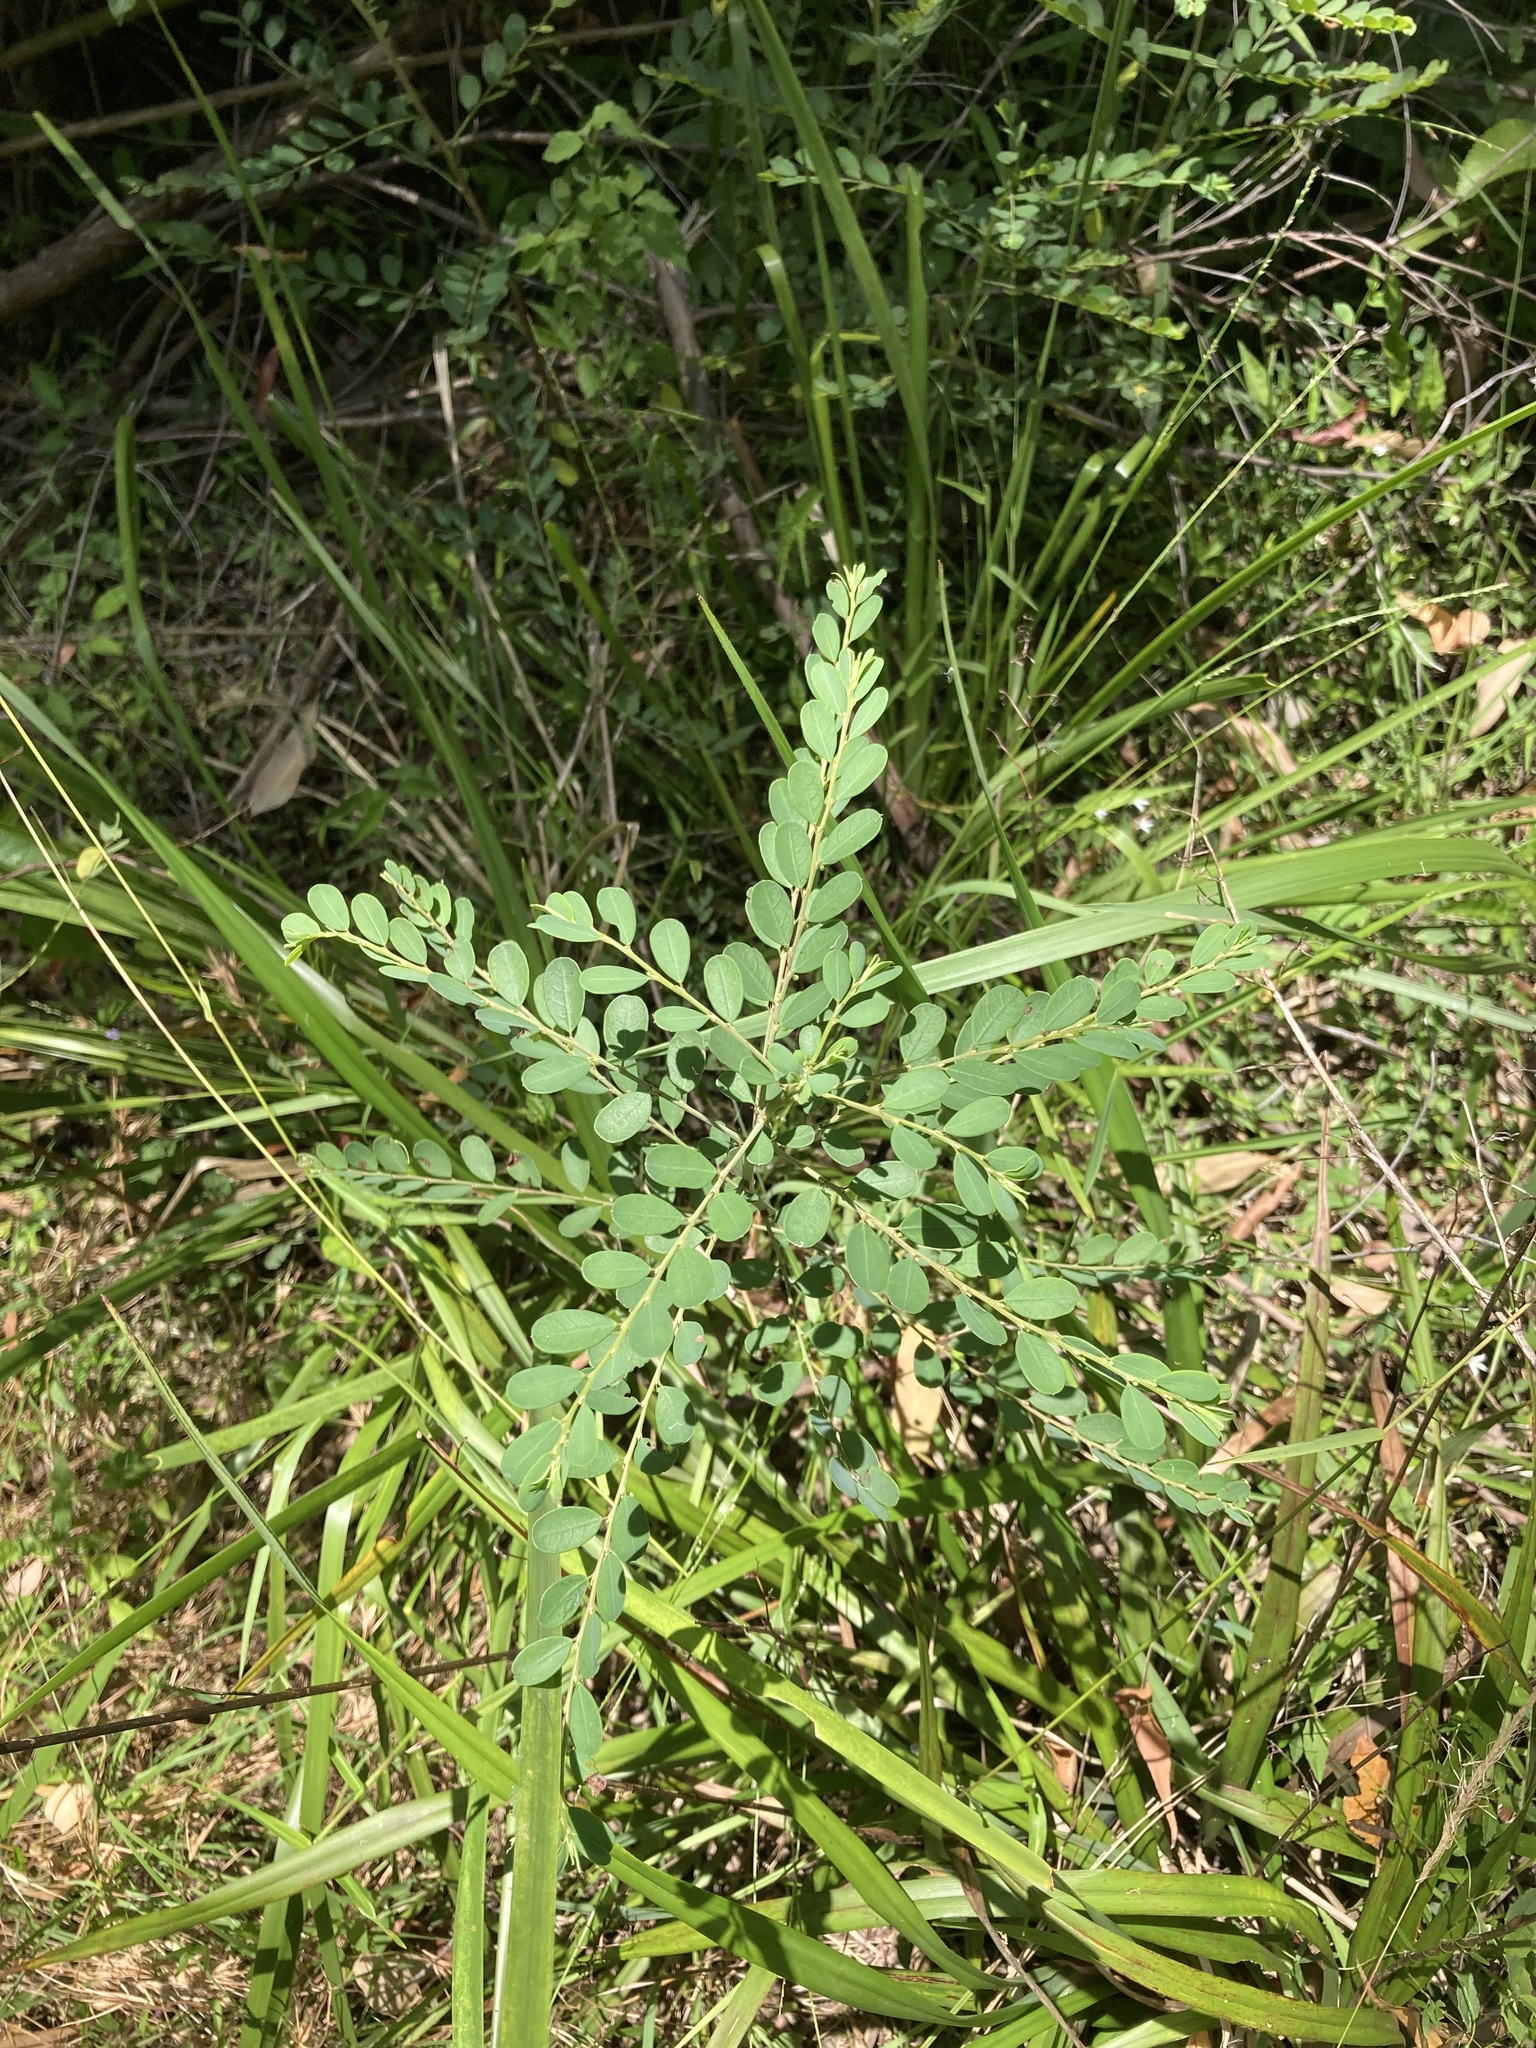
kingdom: Plantae
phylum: Tracheophyta
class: Magnoliopsida
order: Malpighiales
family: Phyllanthaceae
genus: Phyllanthus
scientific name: Phyllanthus gunnii
